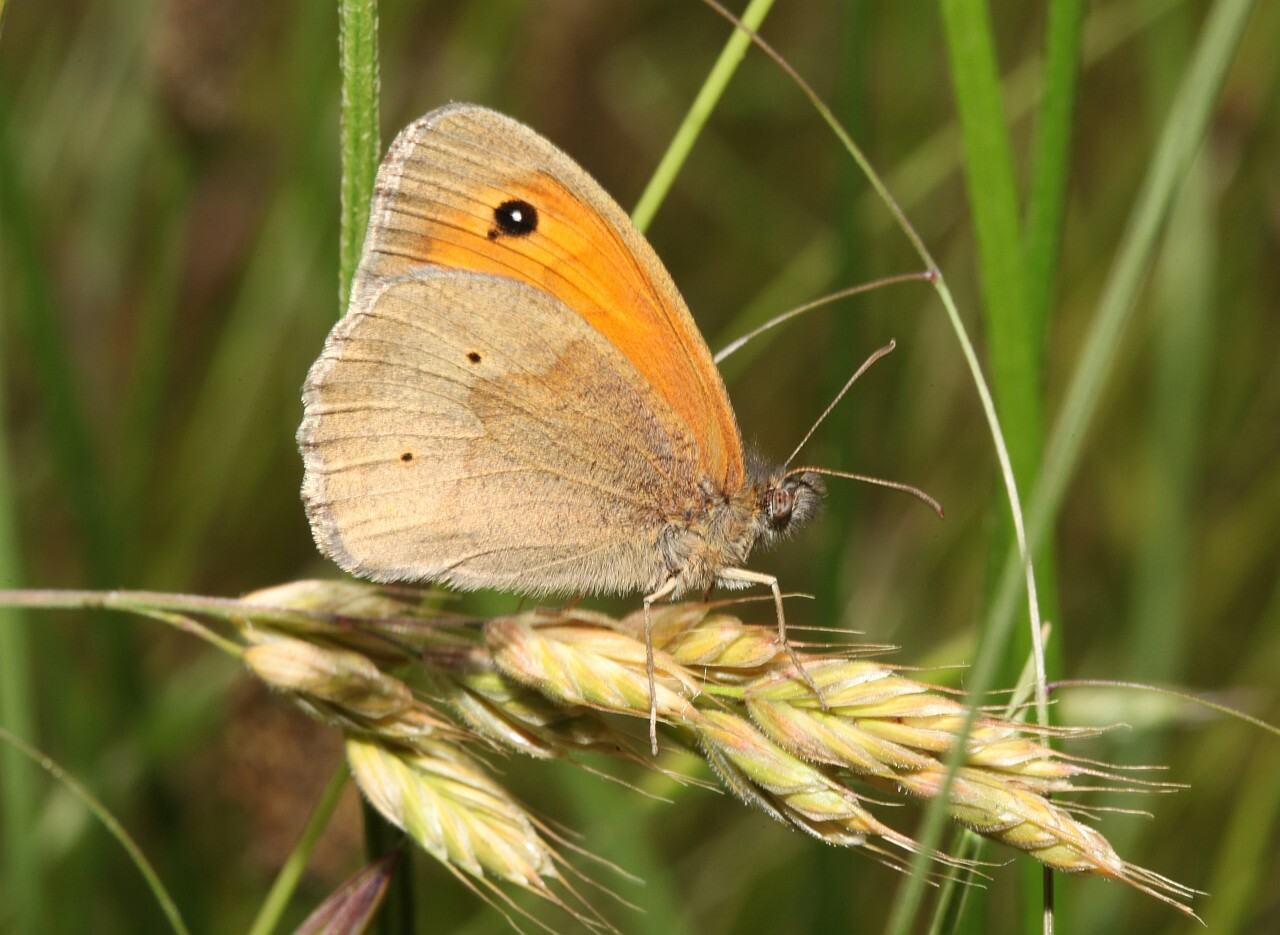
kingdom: Animalia
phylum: Arthropoda
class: Insecta
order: Lepidoptera
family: Nymphalidae
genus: Maniola
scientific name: Maniola jurtina
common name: Meadow brown
